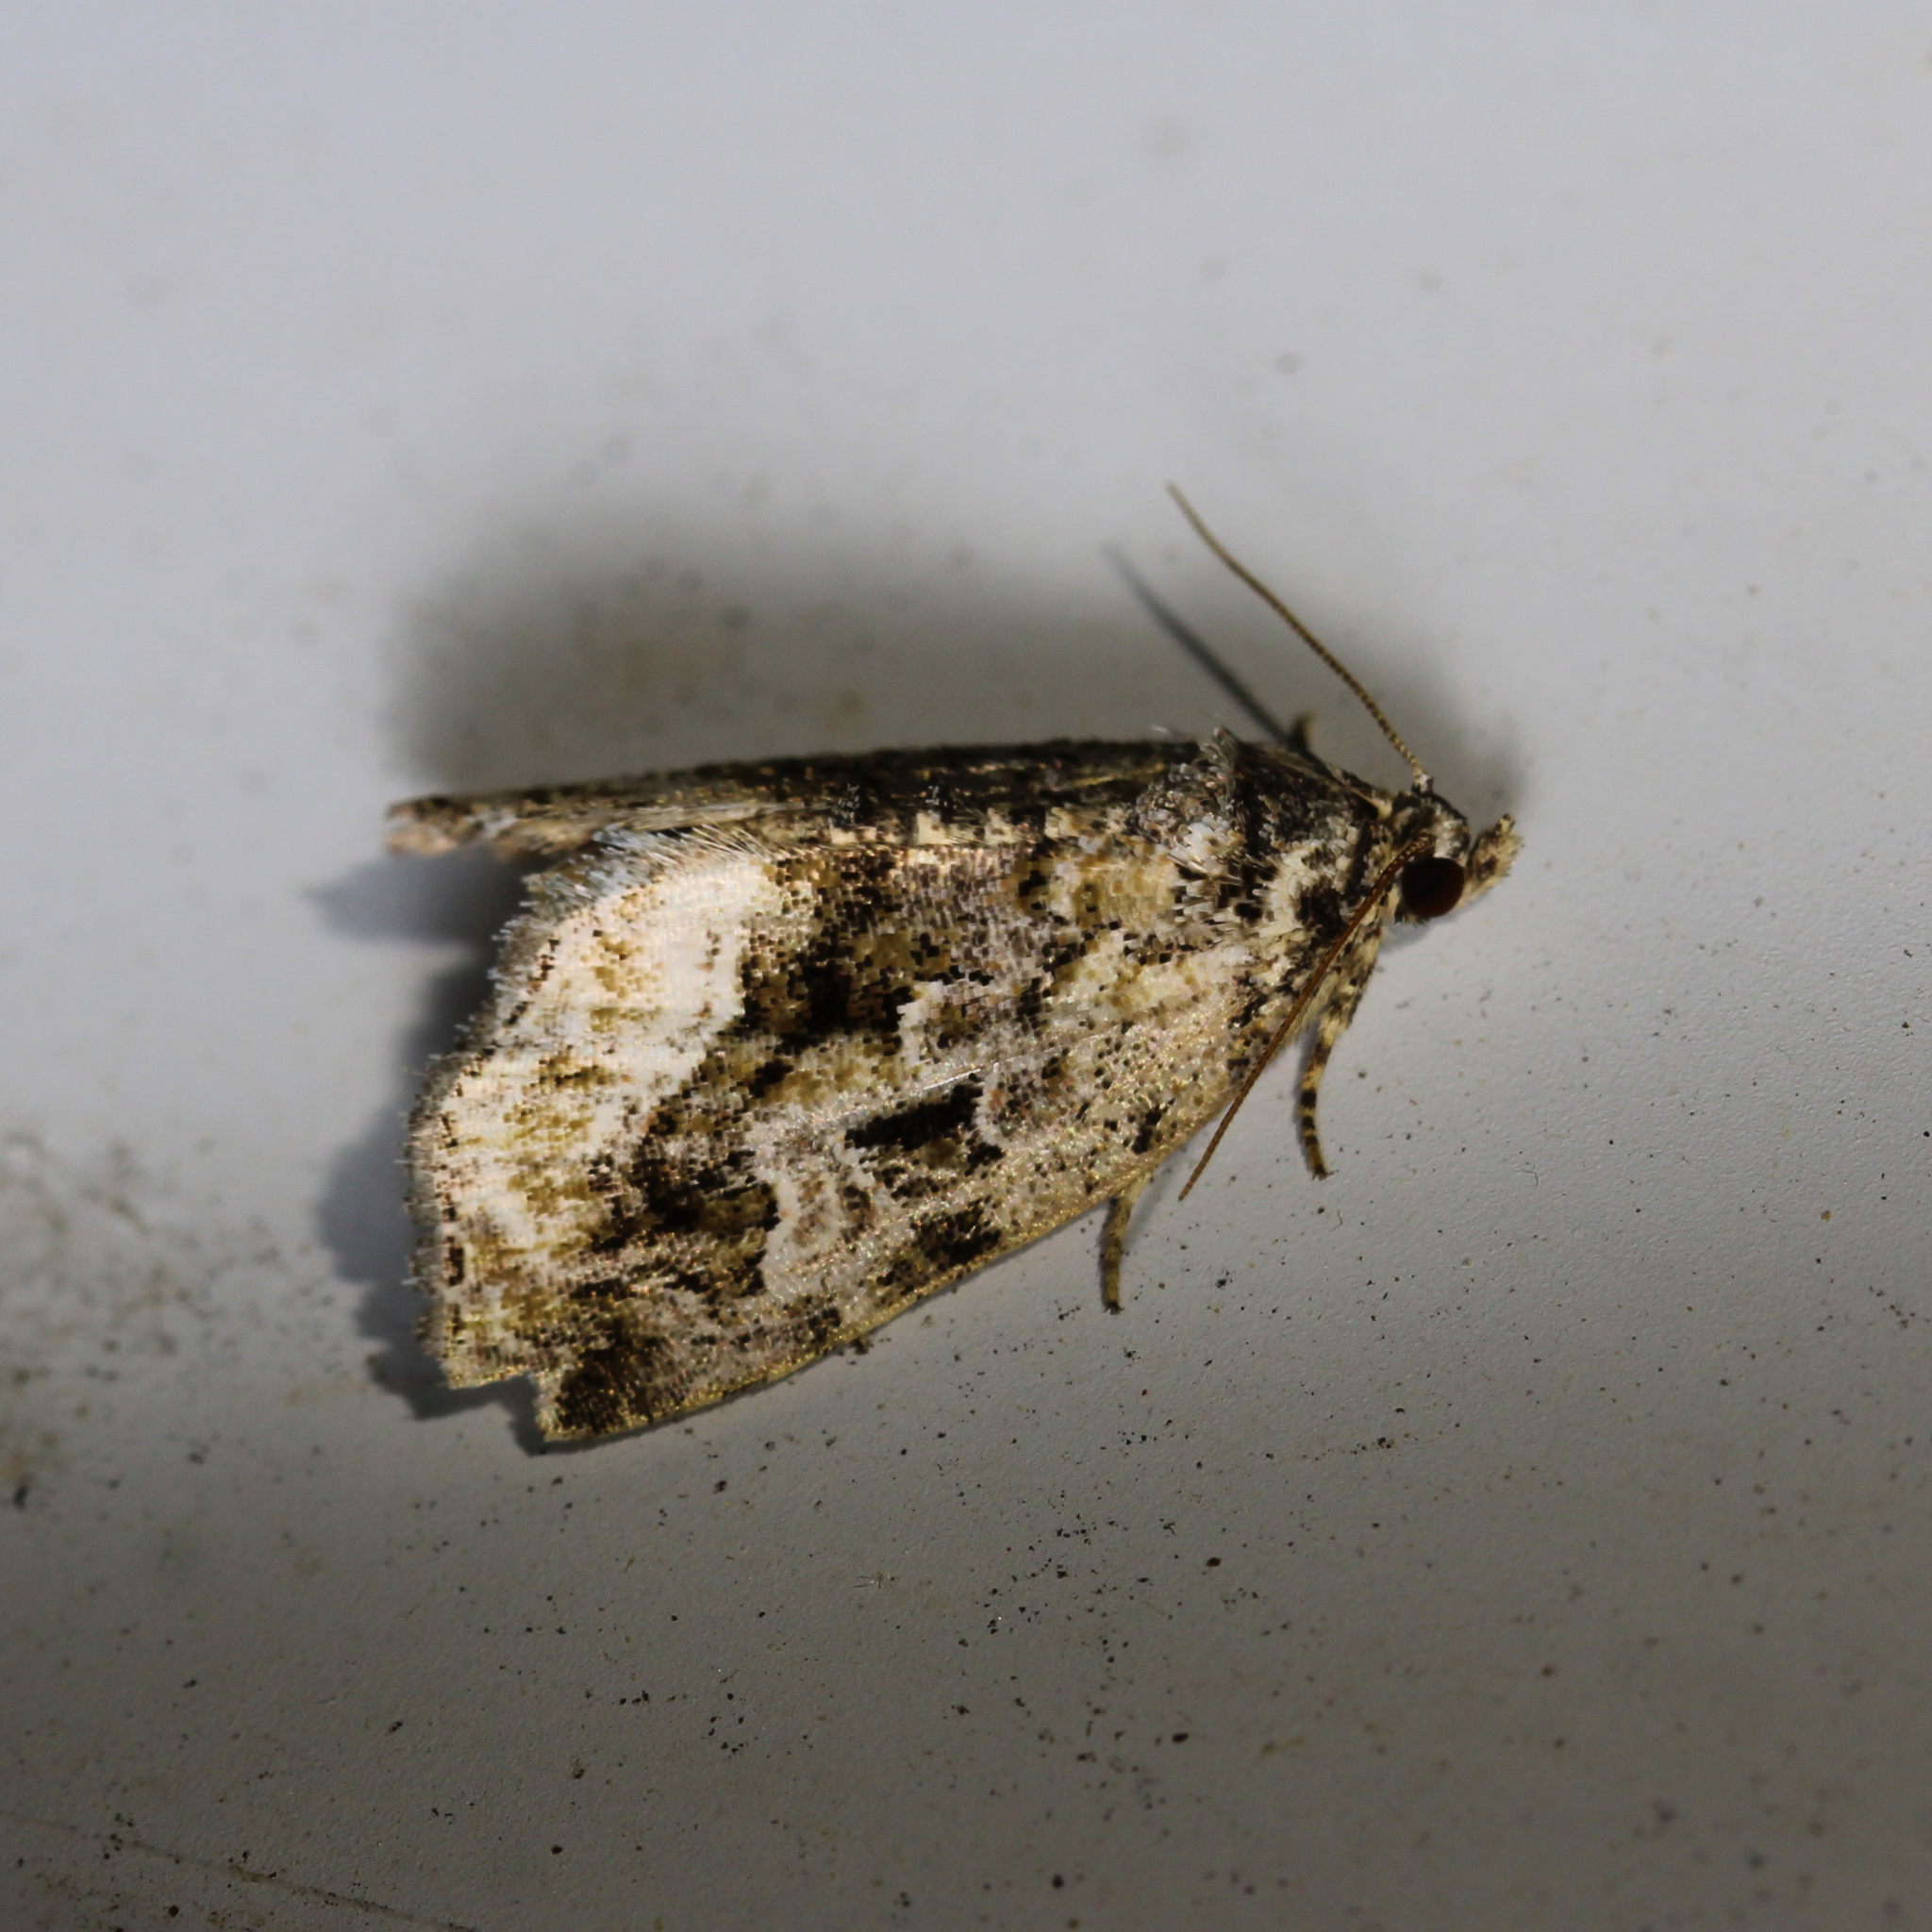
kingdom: Animalia
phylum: Arthropoda
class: Insecta
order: Lepidoptera
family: Noctuidae
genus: Protodeltote
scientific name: Protodeltote muscosula
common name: Large mossy glyph
